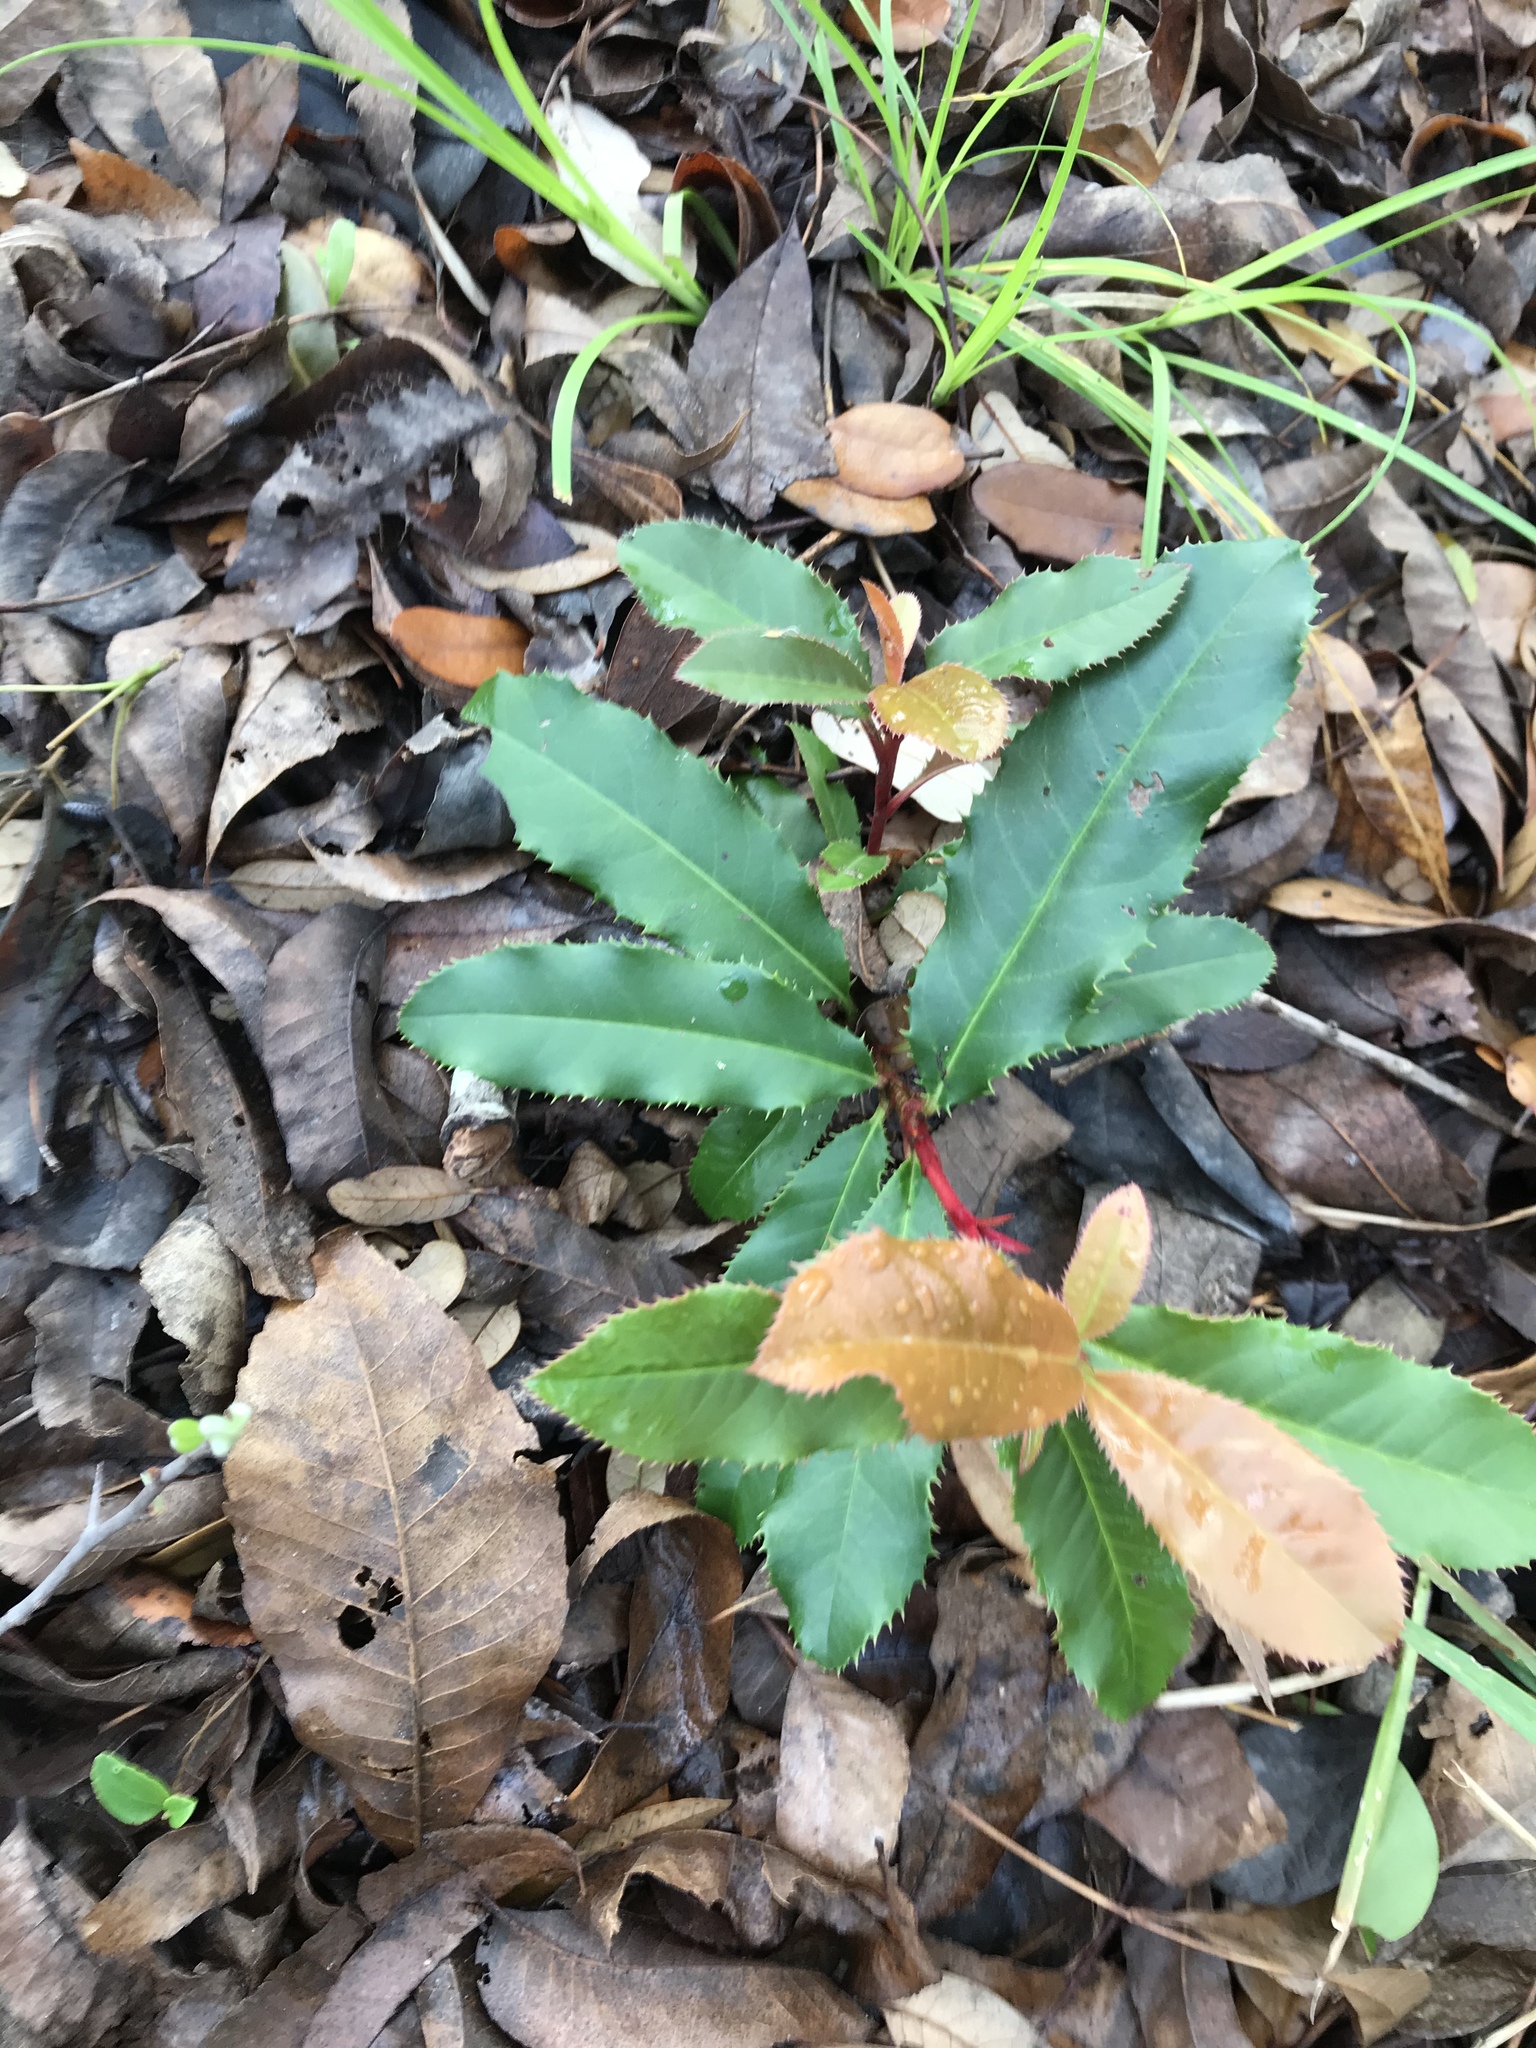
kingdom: Plantae
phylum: Tracheophyta
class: Magnoliopsida
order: Rosales
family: Rosaceae
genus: Photinia
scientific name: Photinia serratifolia
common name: Taiwanese photinia
